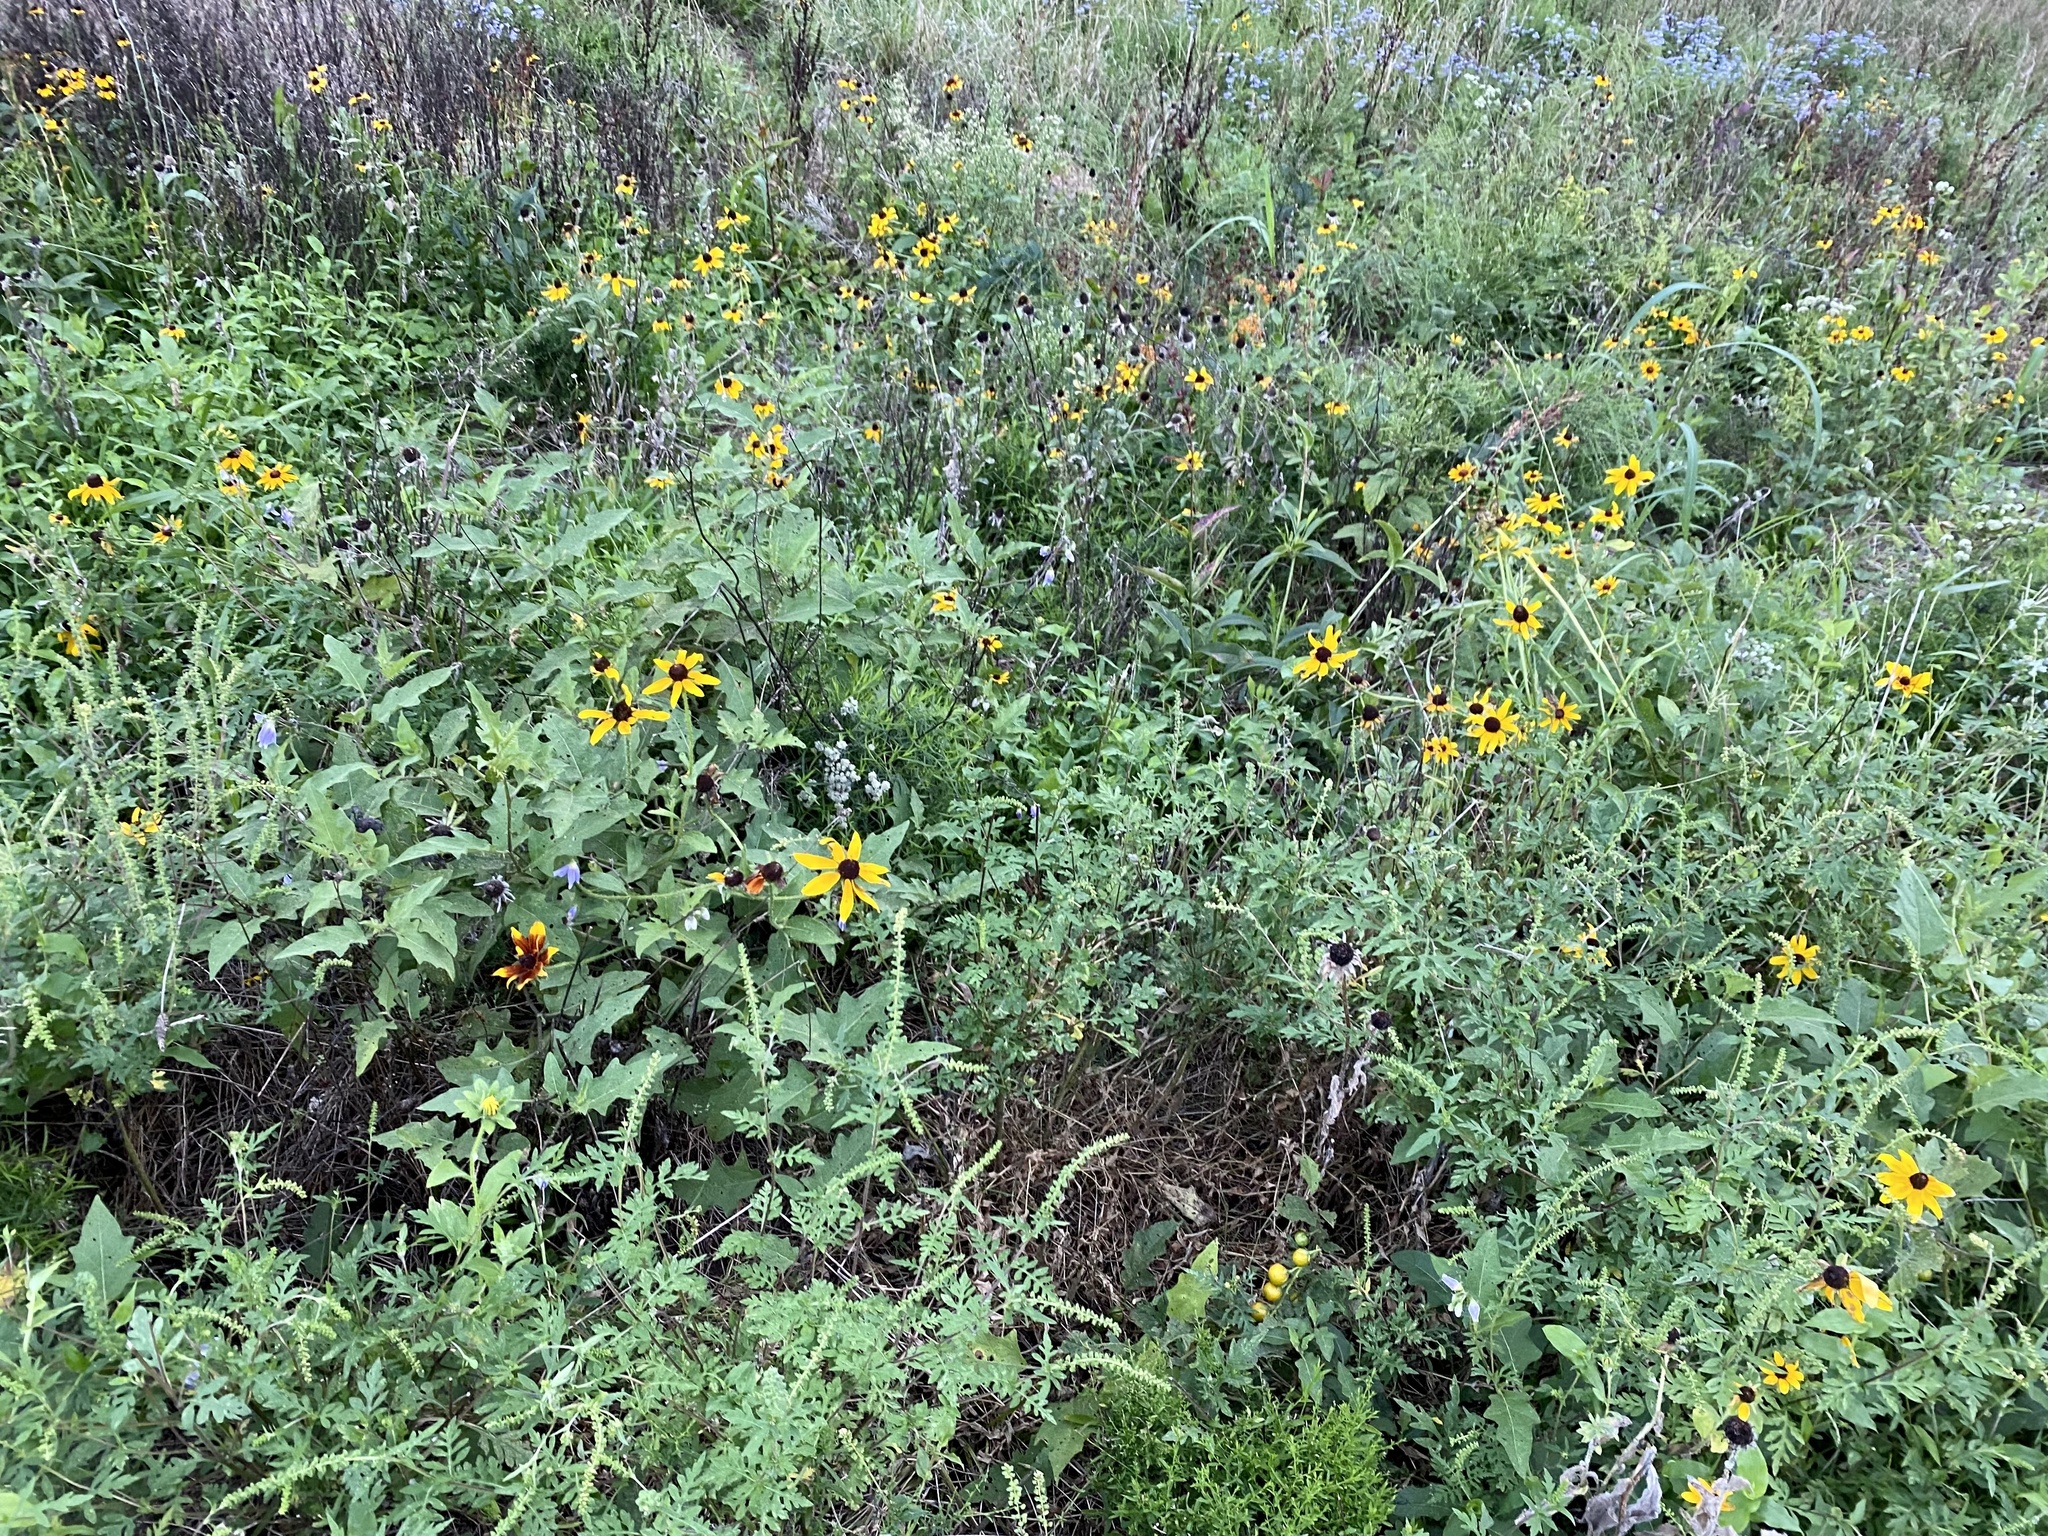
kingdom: Plantae
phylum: Tracheophyta
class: Magnoliopsida
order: Asterales
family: Asteraceae
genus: Rudbeckia
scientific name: Rudbeckia hirta
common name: Black-eyed-susan
